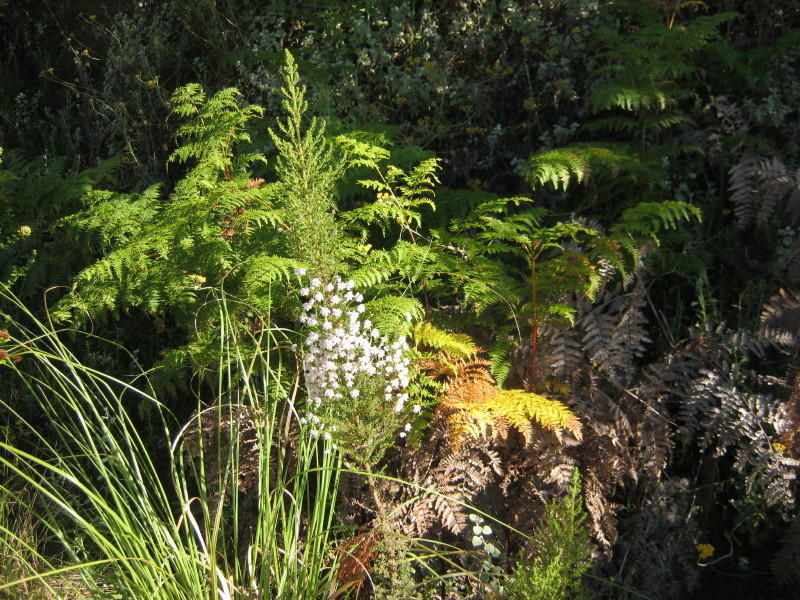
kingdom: Plantae
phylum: Tracheophyta
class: Magnoliopsida
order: Ericales
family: Ericaceae
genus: Erica
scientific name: Erica scabriuscula
